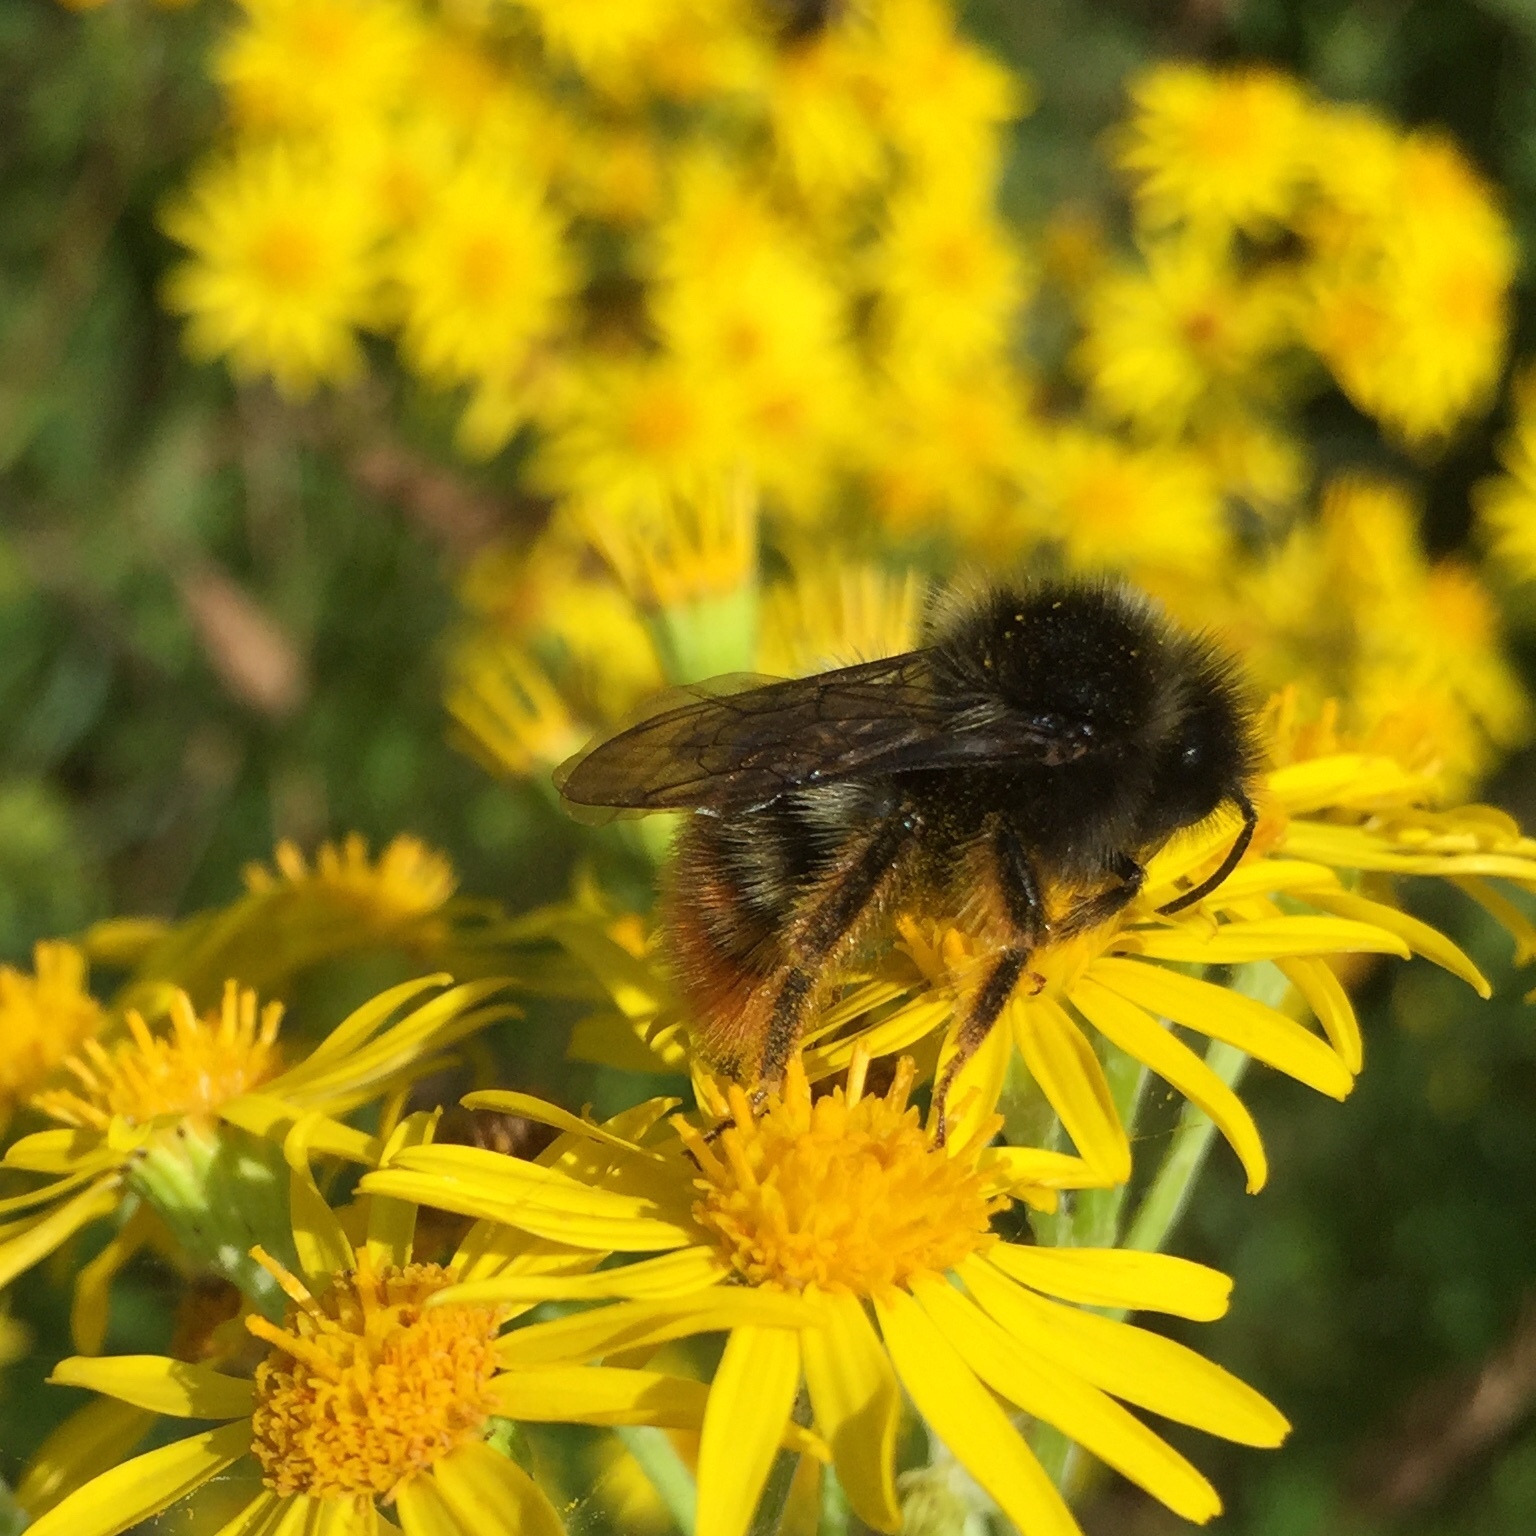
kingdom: Animalia
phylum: Arthropoda
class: Insecta
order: Hymenoptera
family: Apidae
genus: Bombus
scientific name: Bombus rupestris
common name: Hill cuckoo-bee
